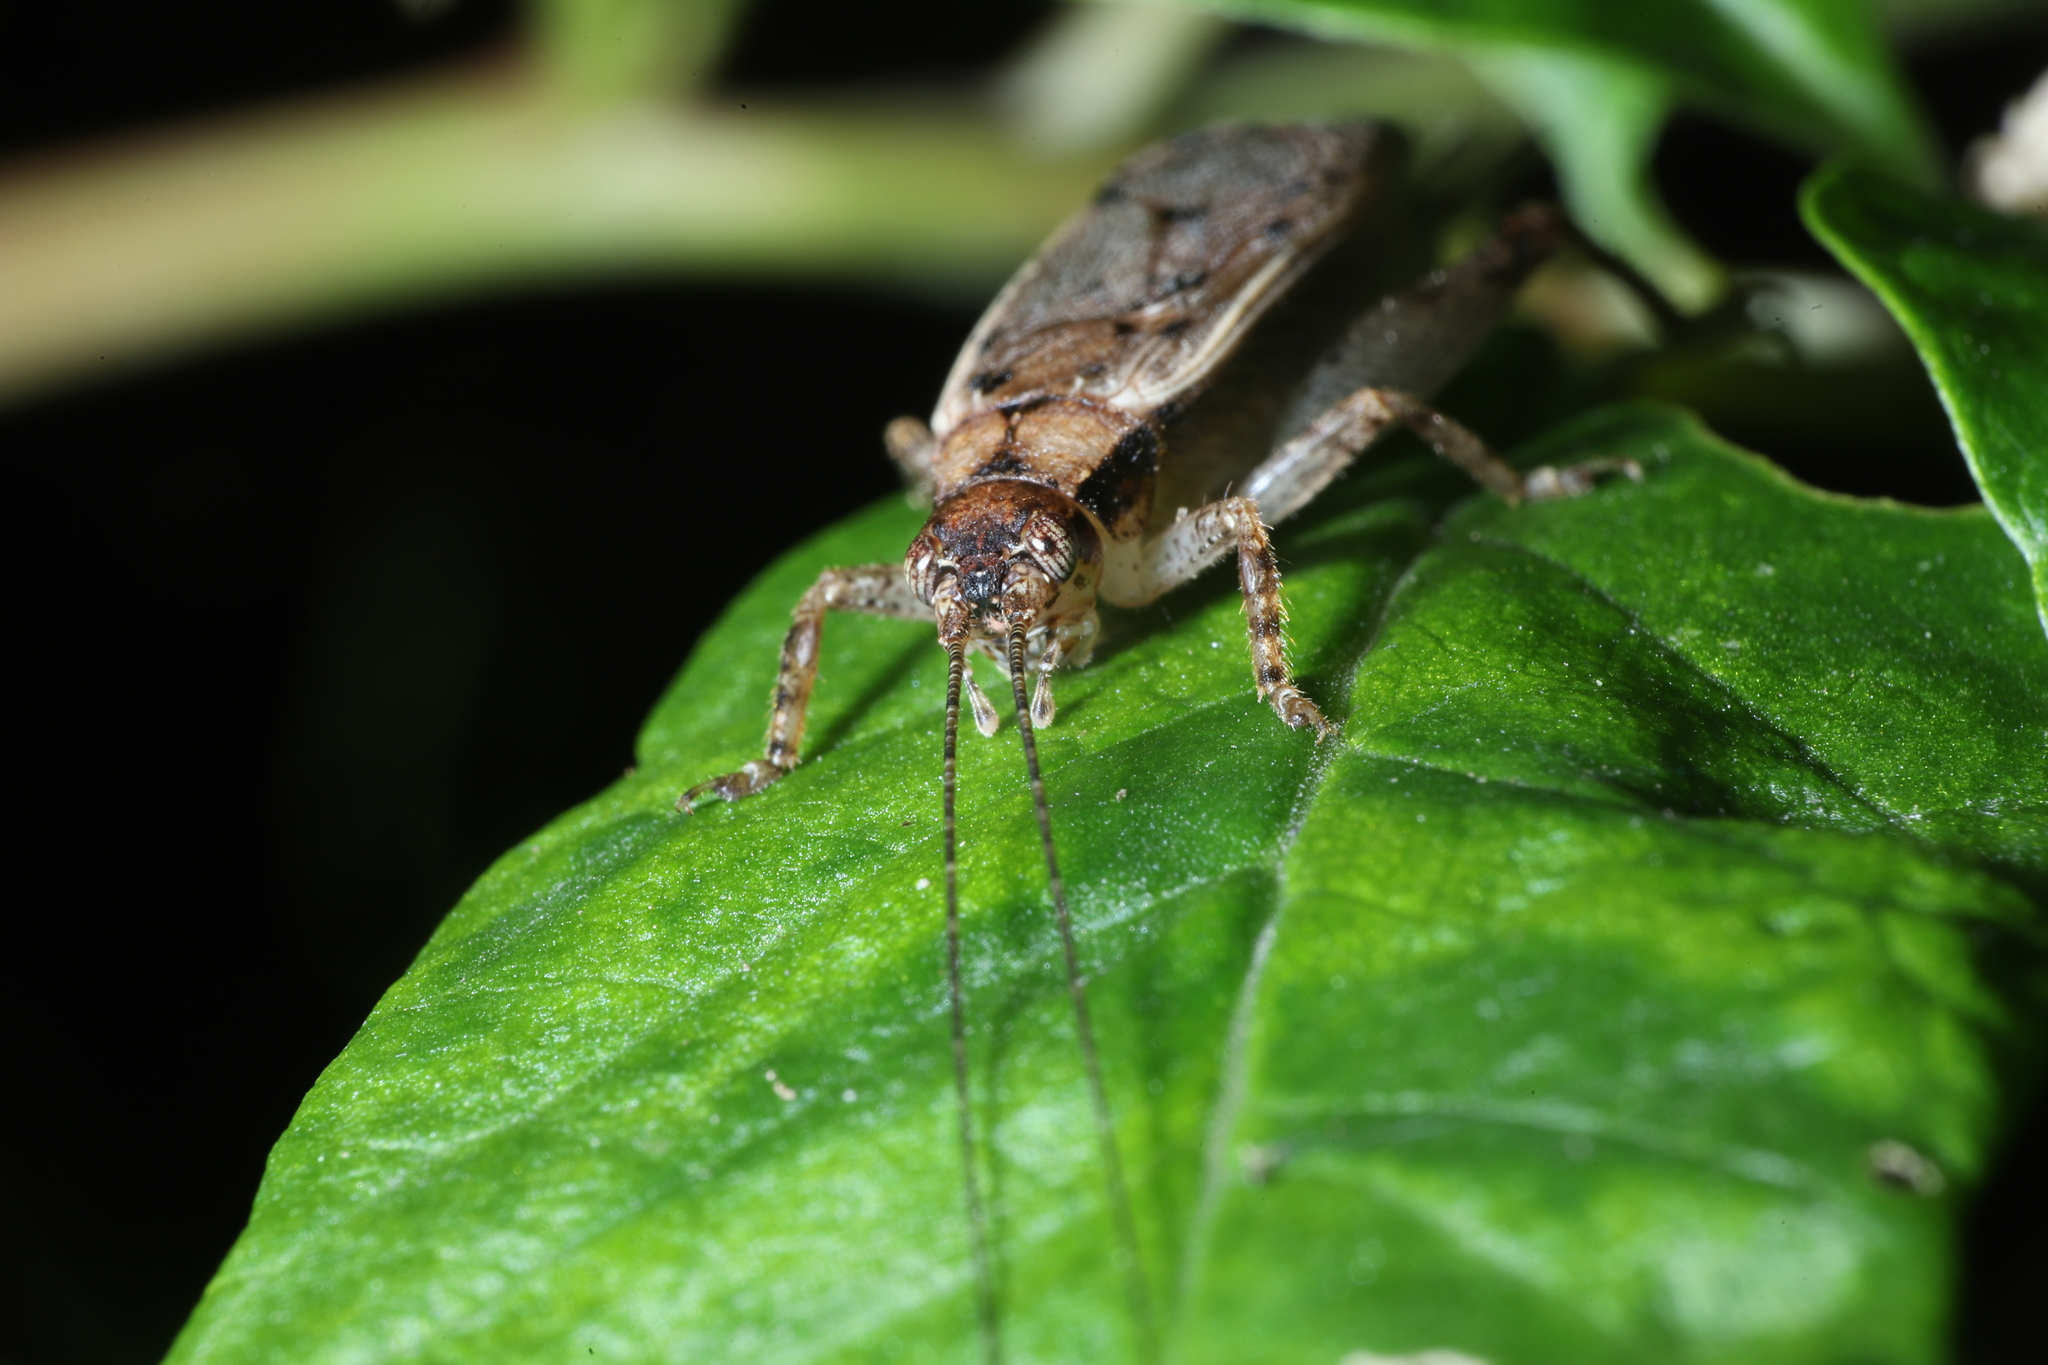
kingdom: Animalia
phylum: Arthropoda
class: Insecta
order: Orthoptera
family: Gryllidae
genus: Hapithus
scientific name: Hapithus saltator
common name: Jumping bush cricket
